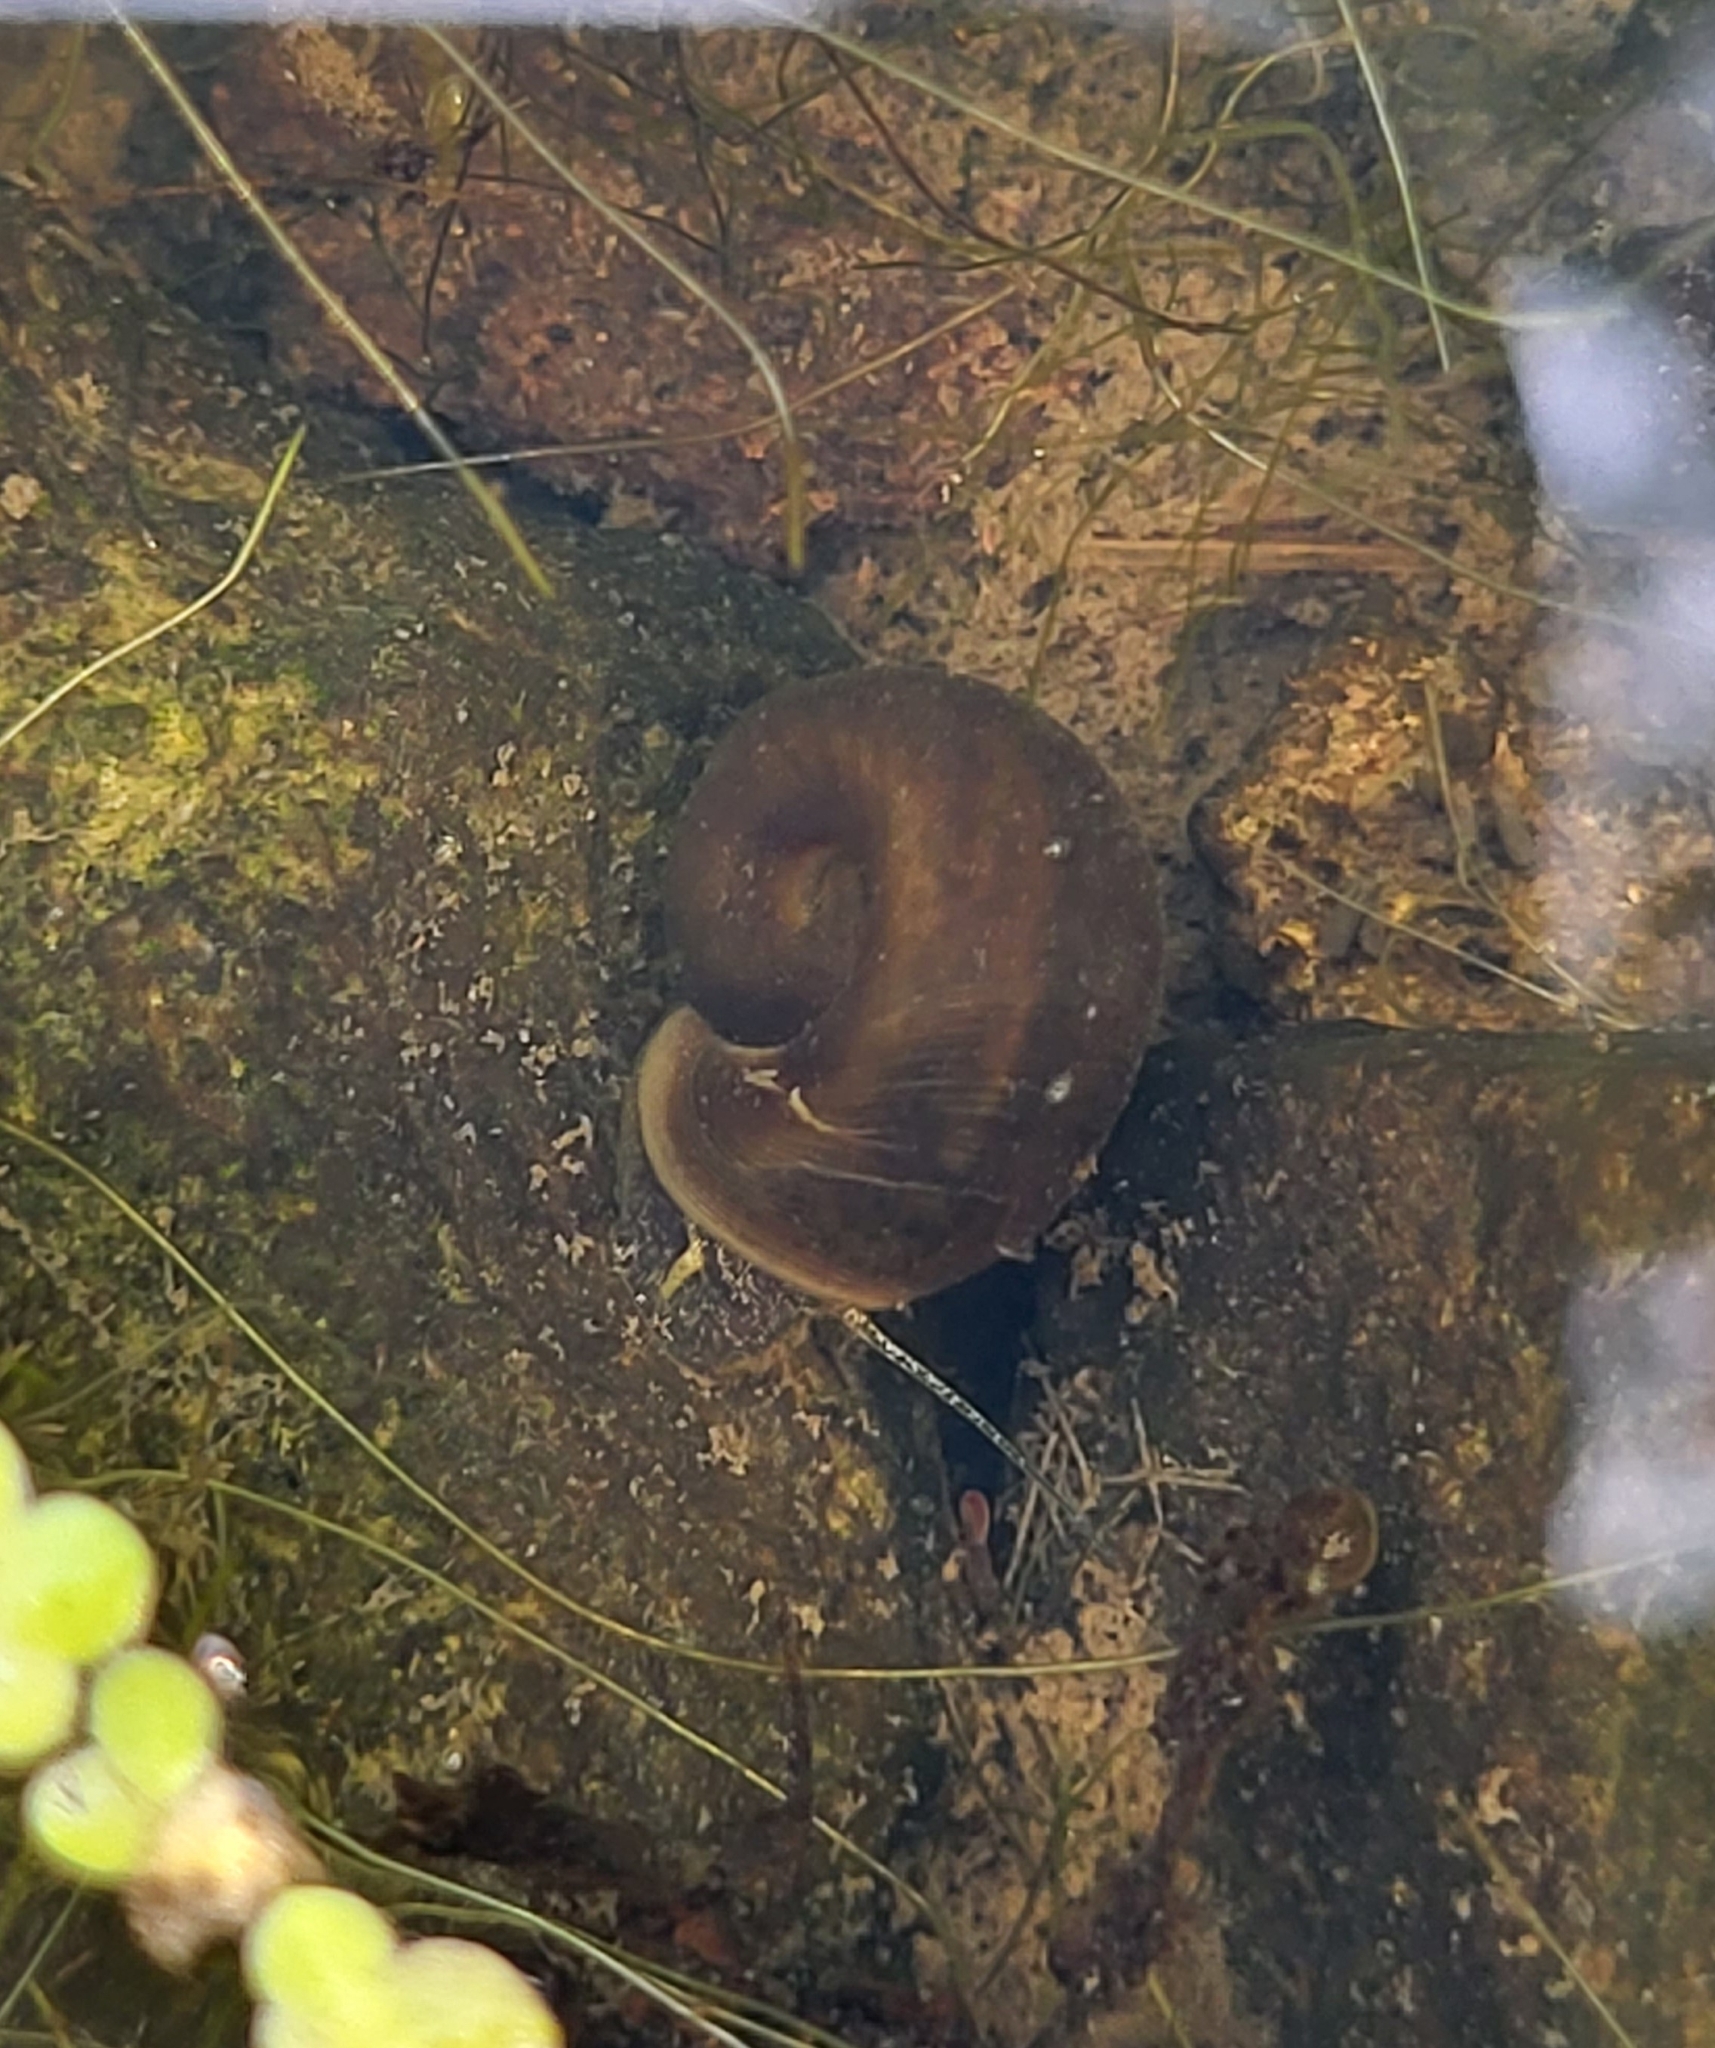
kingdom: Animalia
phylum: Mollusca
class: Gastropoda
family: Planorbidae
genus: Planorbella
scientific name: Planorbella trivolvis
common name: Marsh rams-horn
